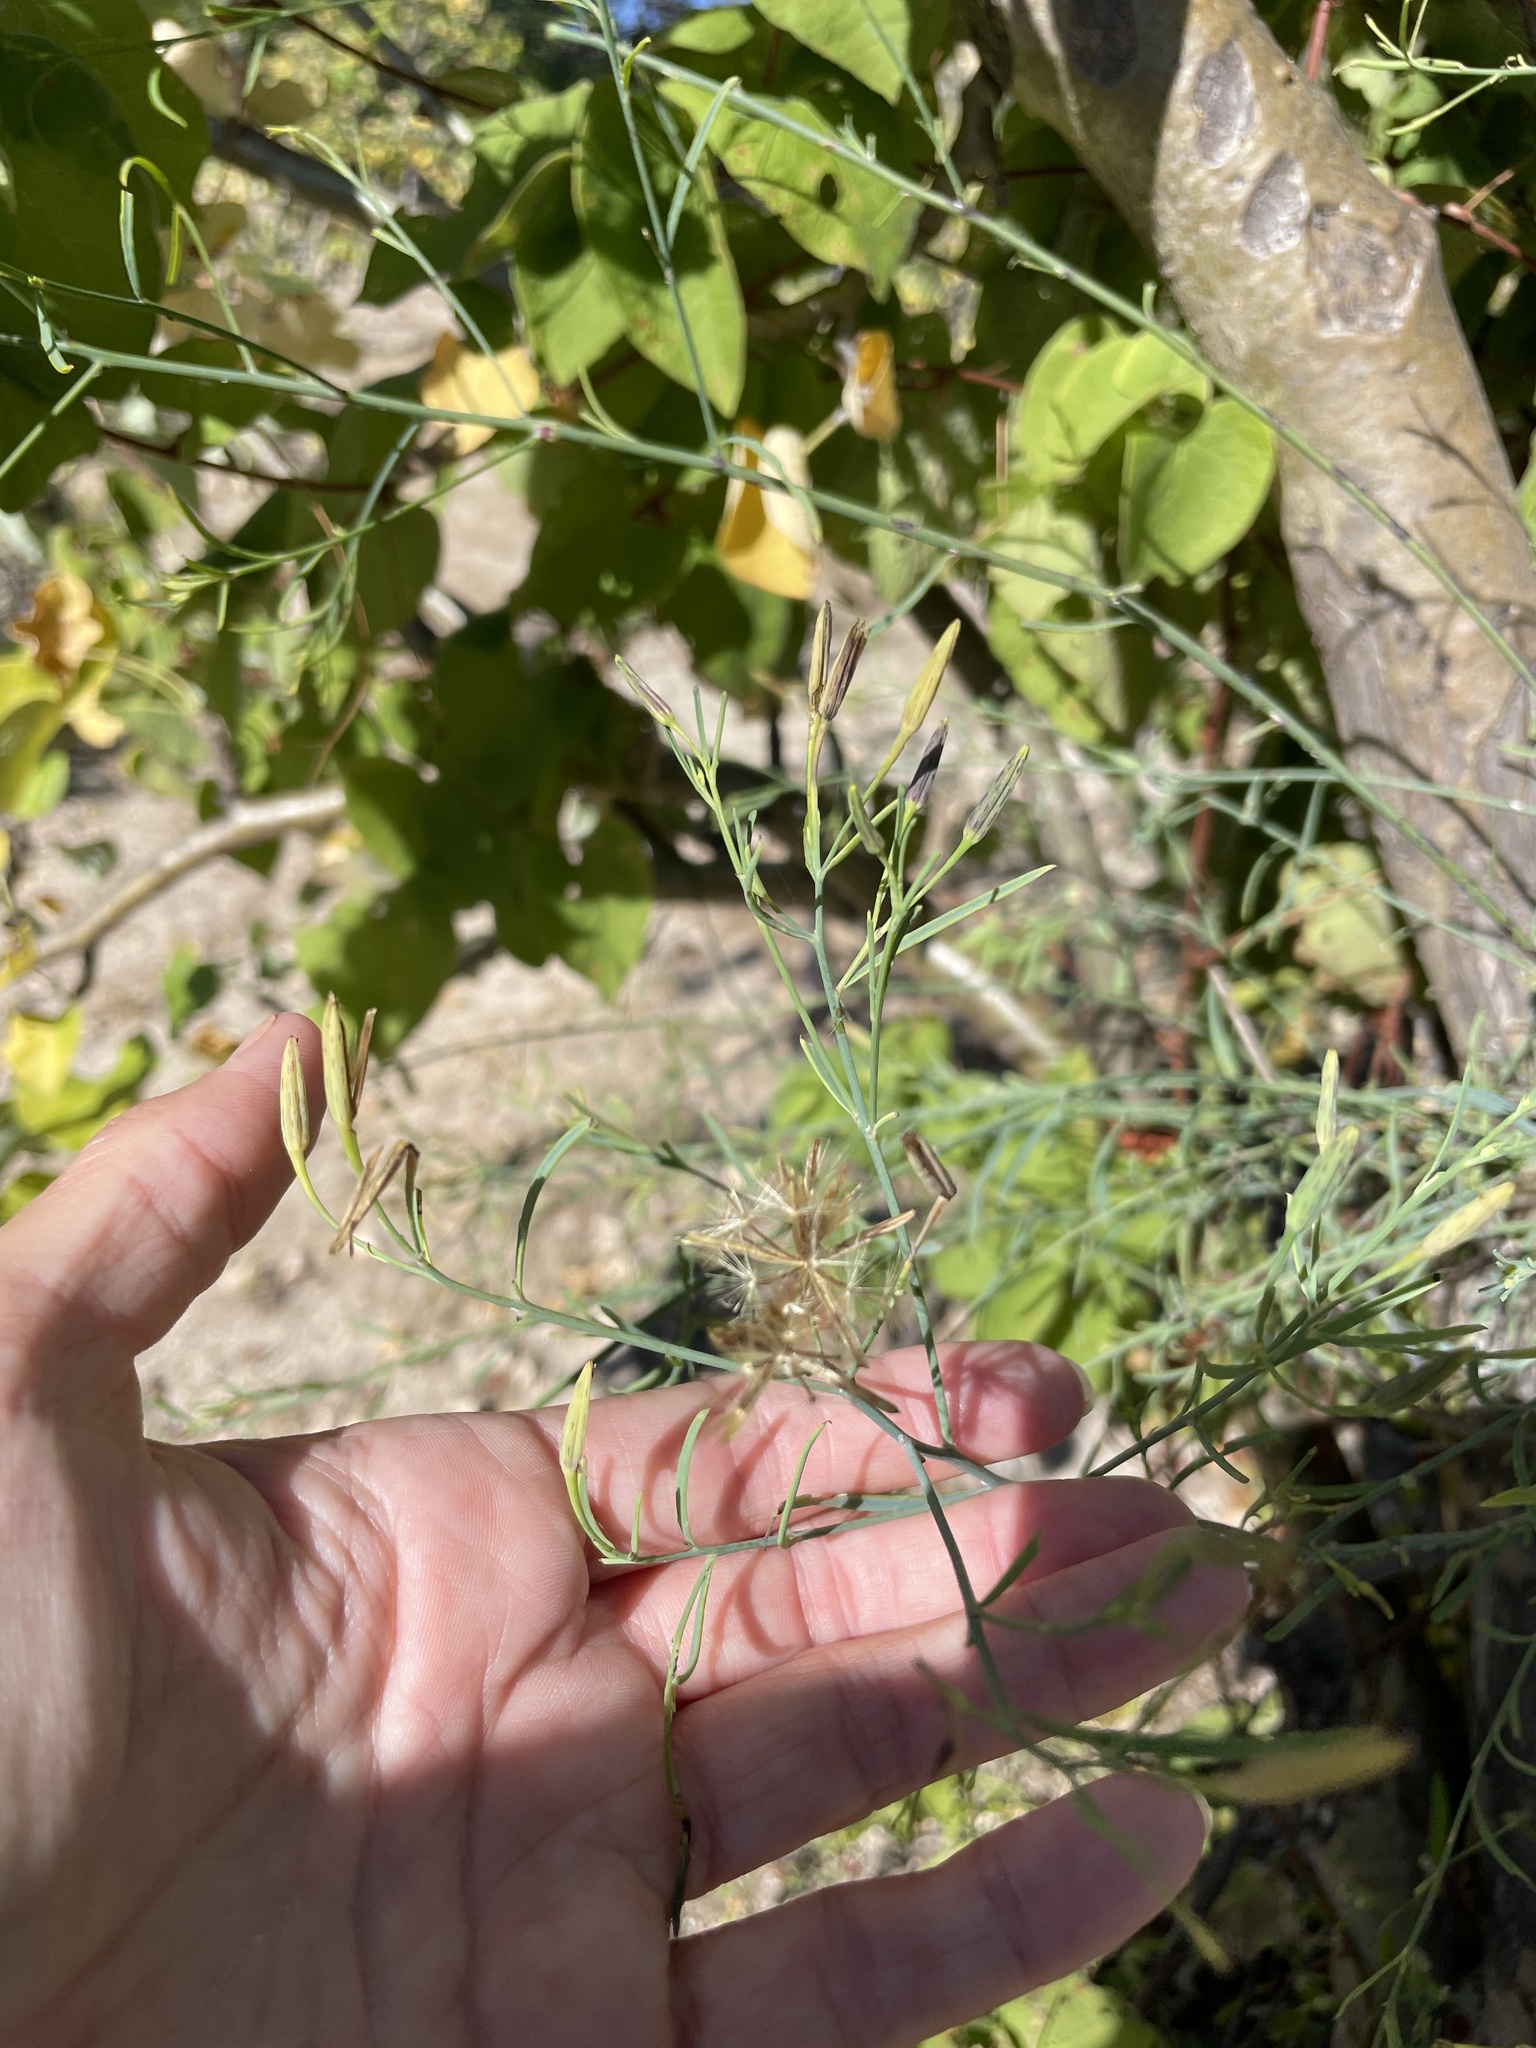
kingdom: Plantae
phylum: Tracheophyta
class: Magnoliopsida
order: Asterales
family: Asteraceae
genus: Porophyllum
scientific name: Porophyllum gracile
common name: Odora
